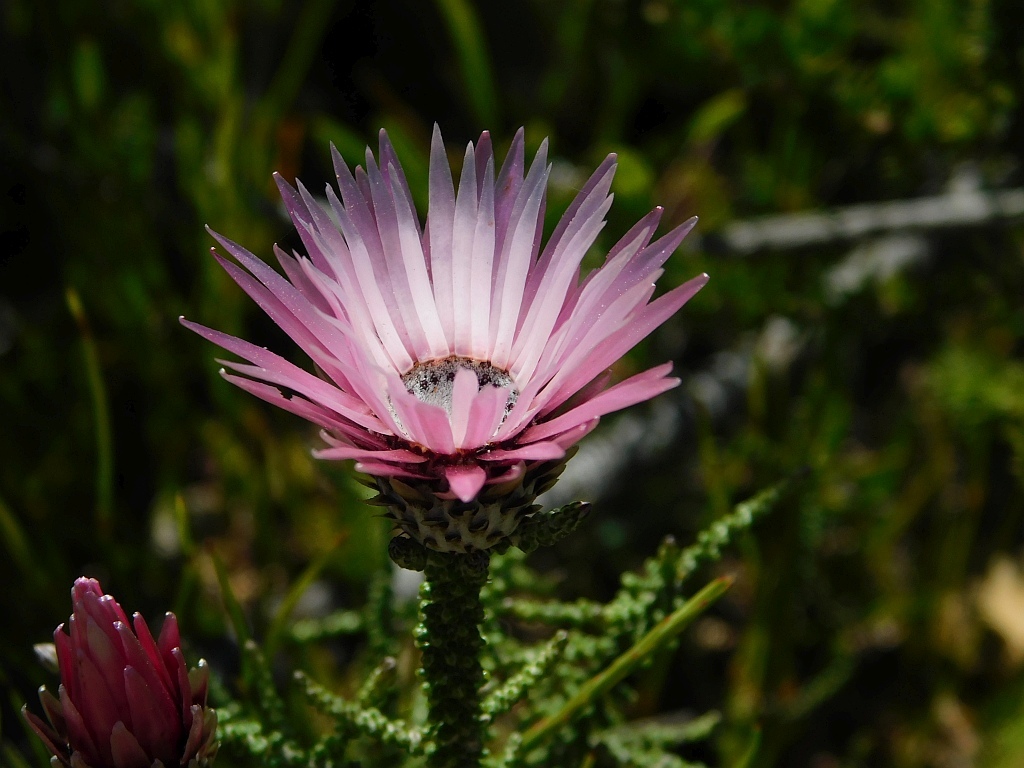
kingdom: Plantae
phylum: Tracheophyta
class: Magnoliopsida
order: Asterales
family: Asteraceae
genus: Phaenocoma
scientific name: Phaenocoma prolifera
